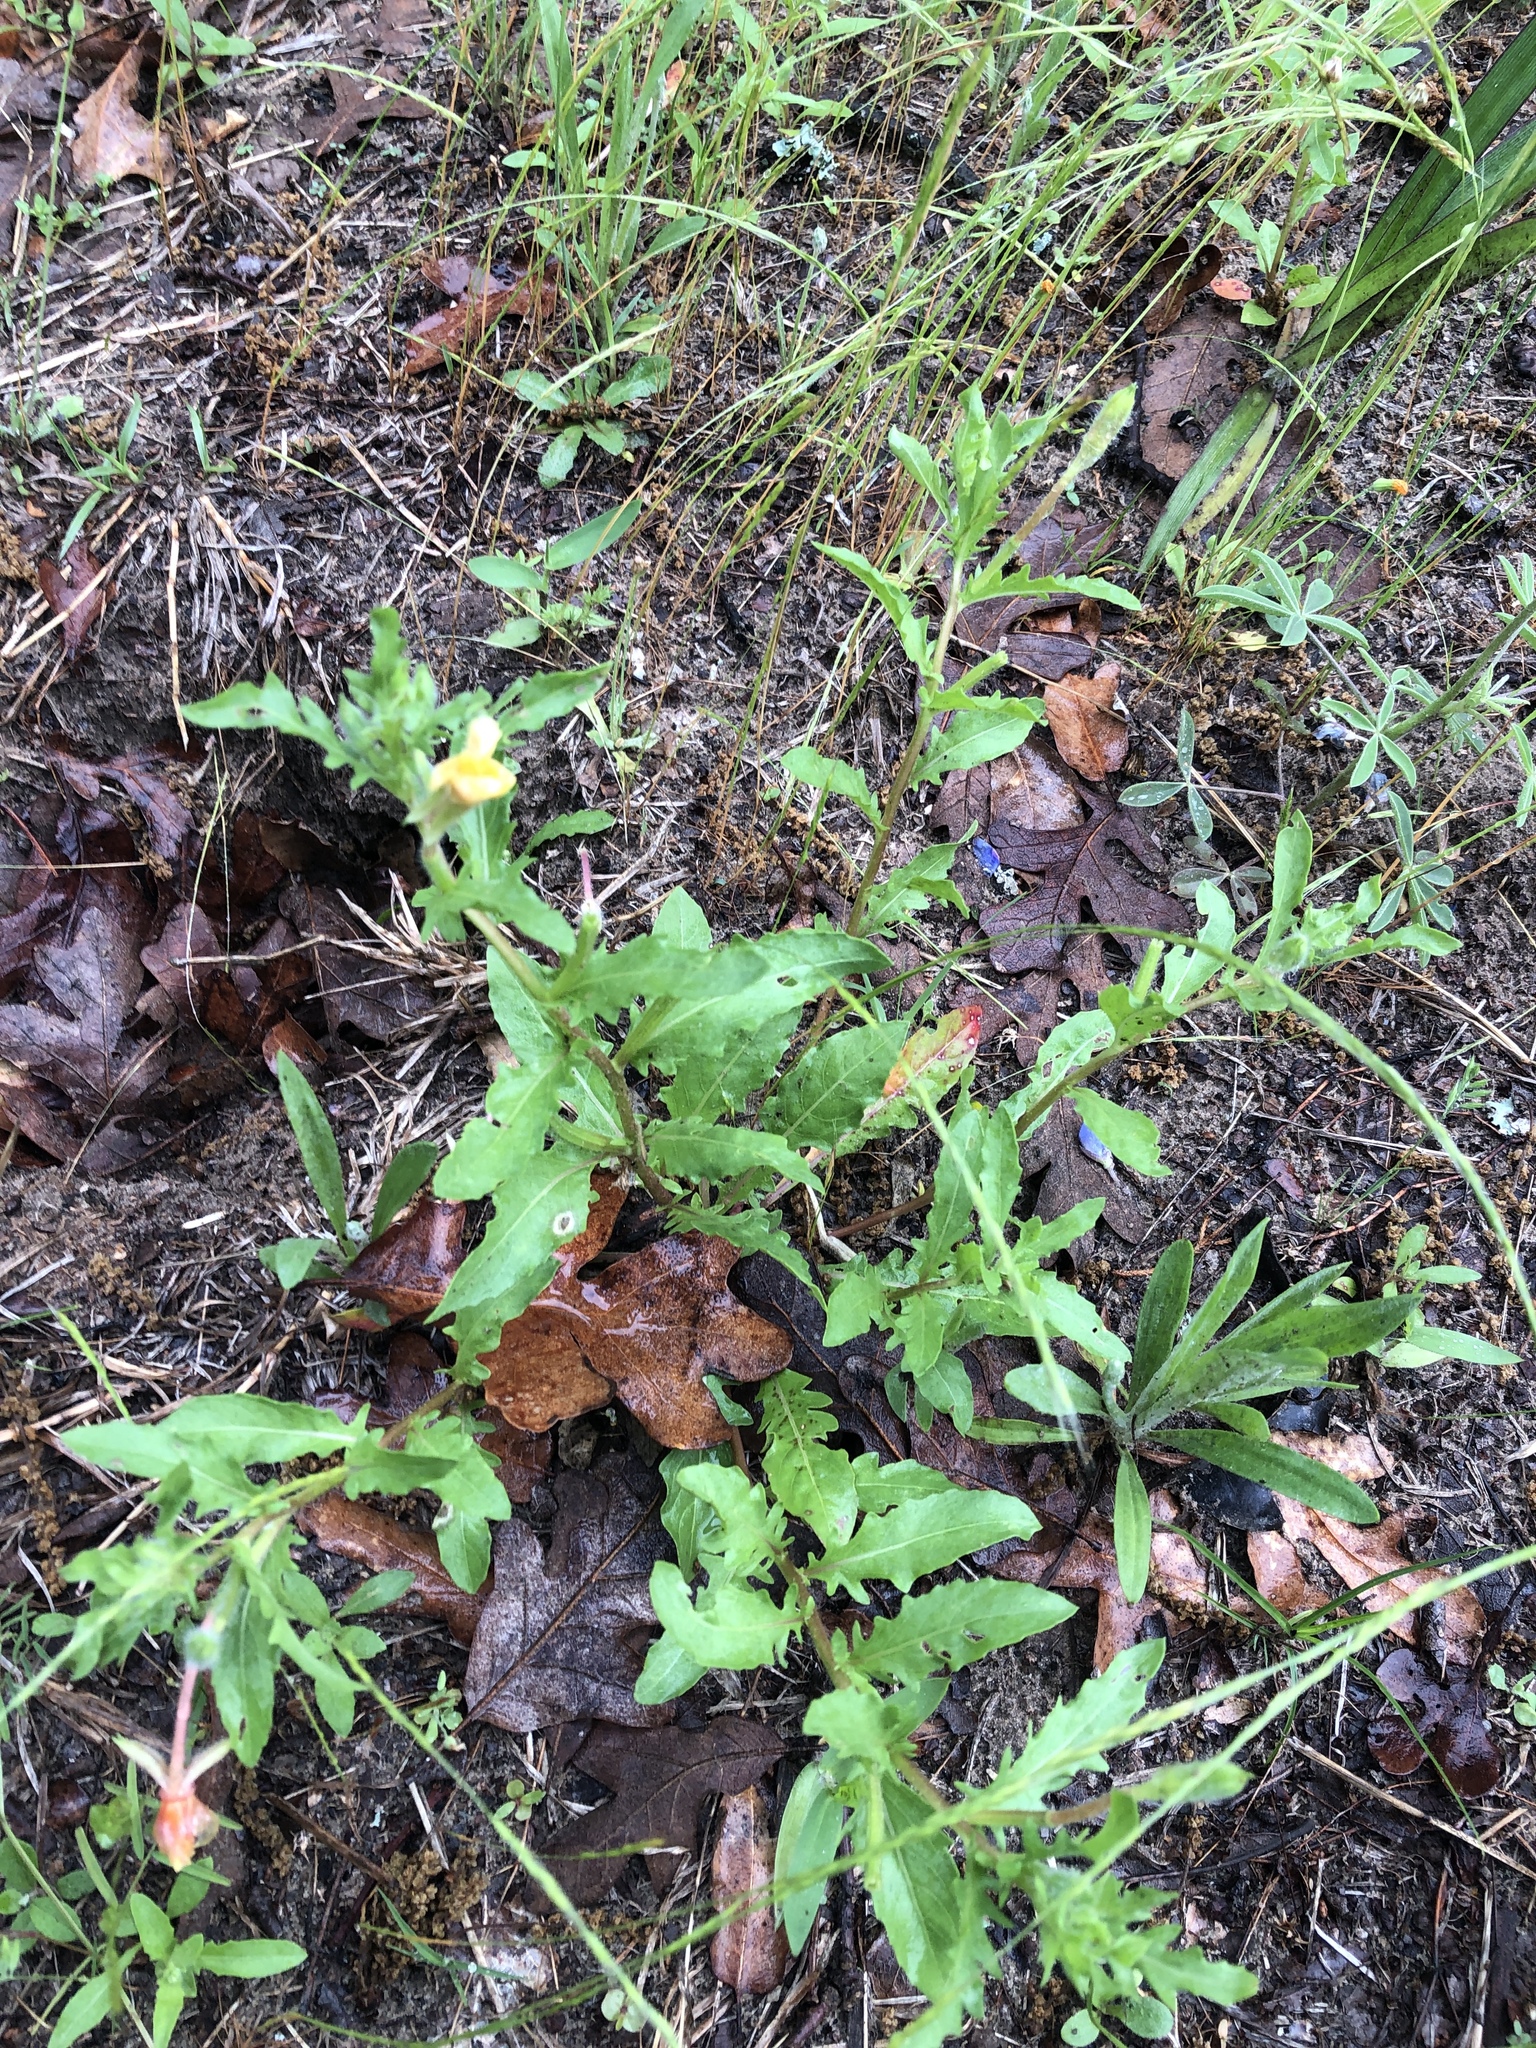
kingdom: Plantae
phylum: Tracheophyta
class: Magnoliopsida
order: Myrtales
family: Onagraceae
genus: Oenothera
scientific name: Oenothera laciniata
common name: Cut-leaved evening-primrose
